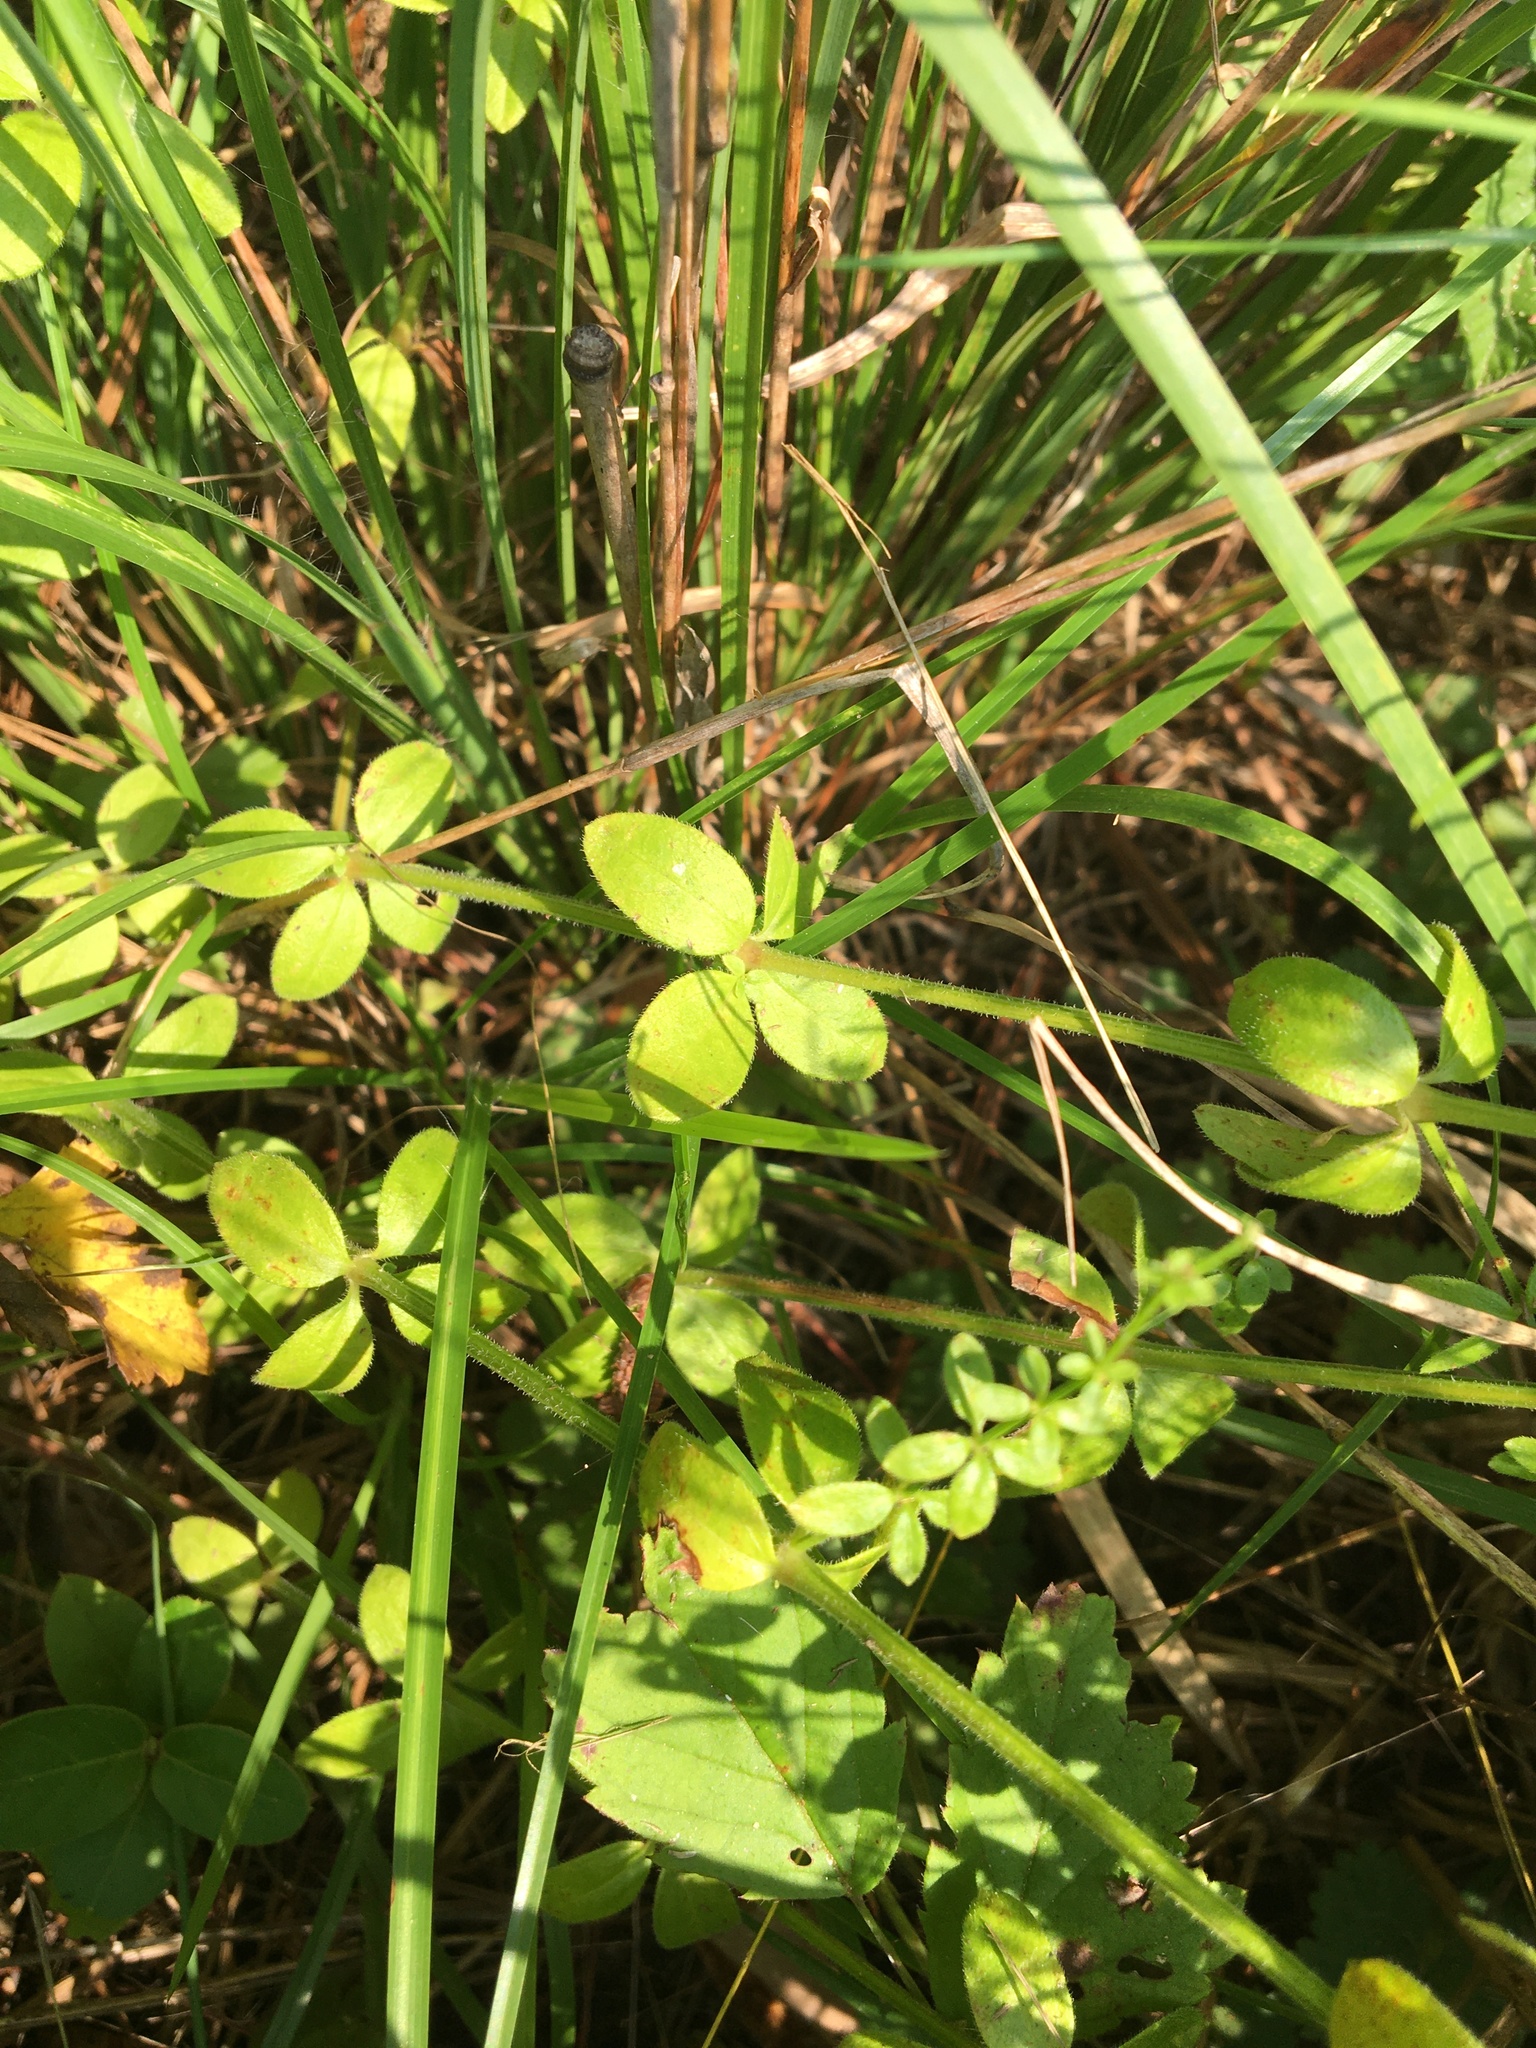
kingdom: Plantae
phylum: Tracheophyta
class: Magnoliopsida
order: Gentianales
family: Rubiaceae
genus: Galium
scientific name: Galium pilosum
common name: Hairy bedstraw
